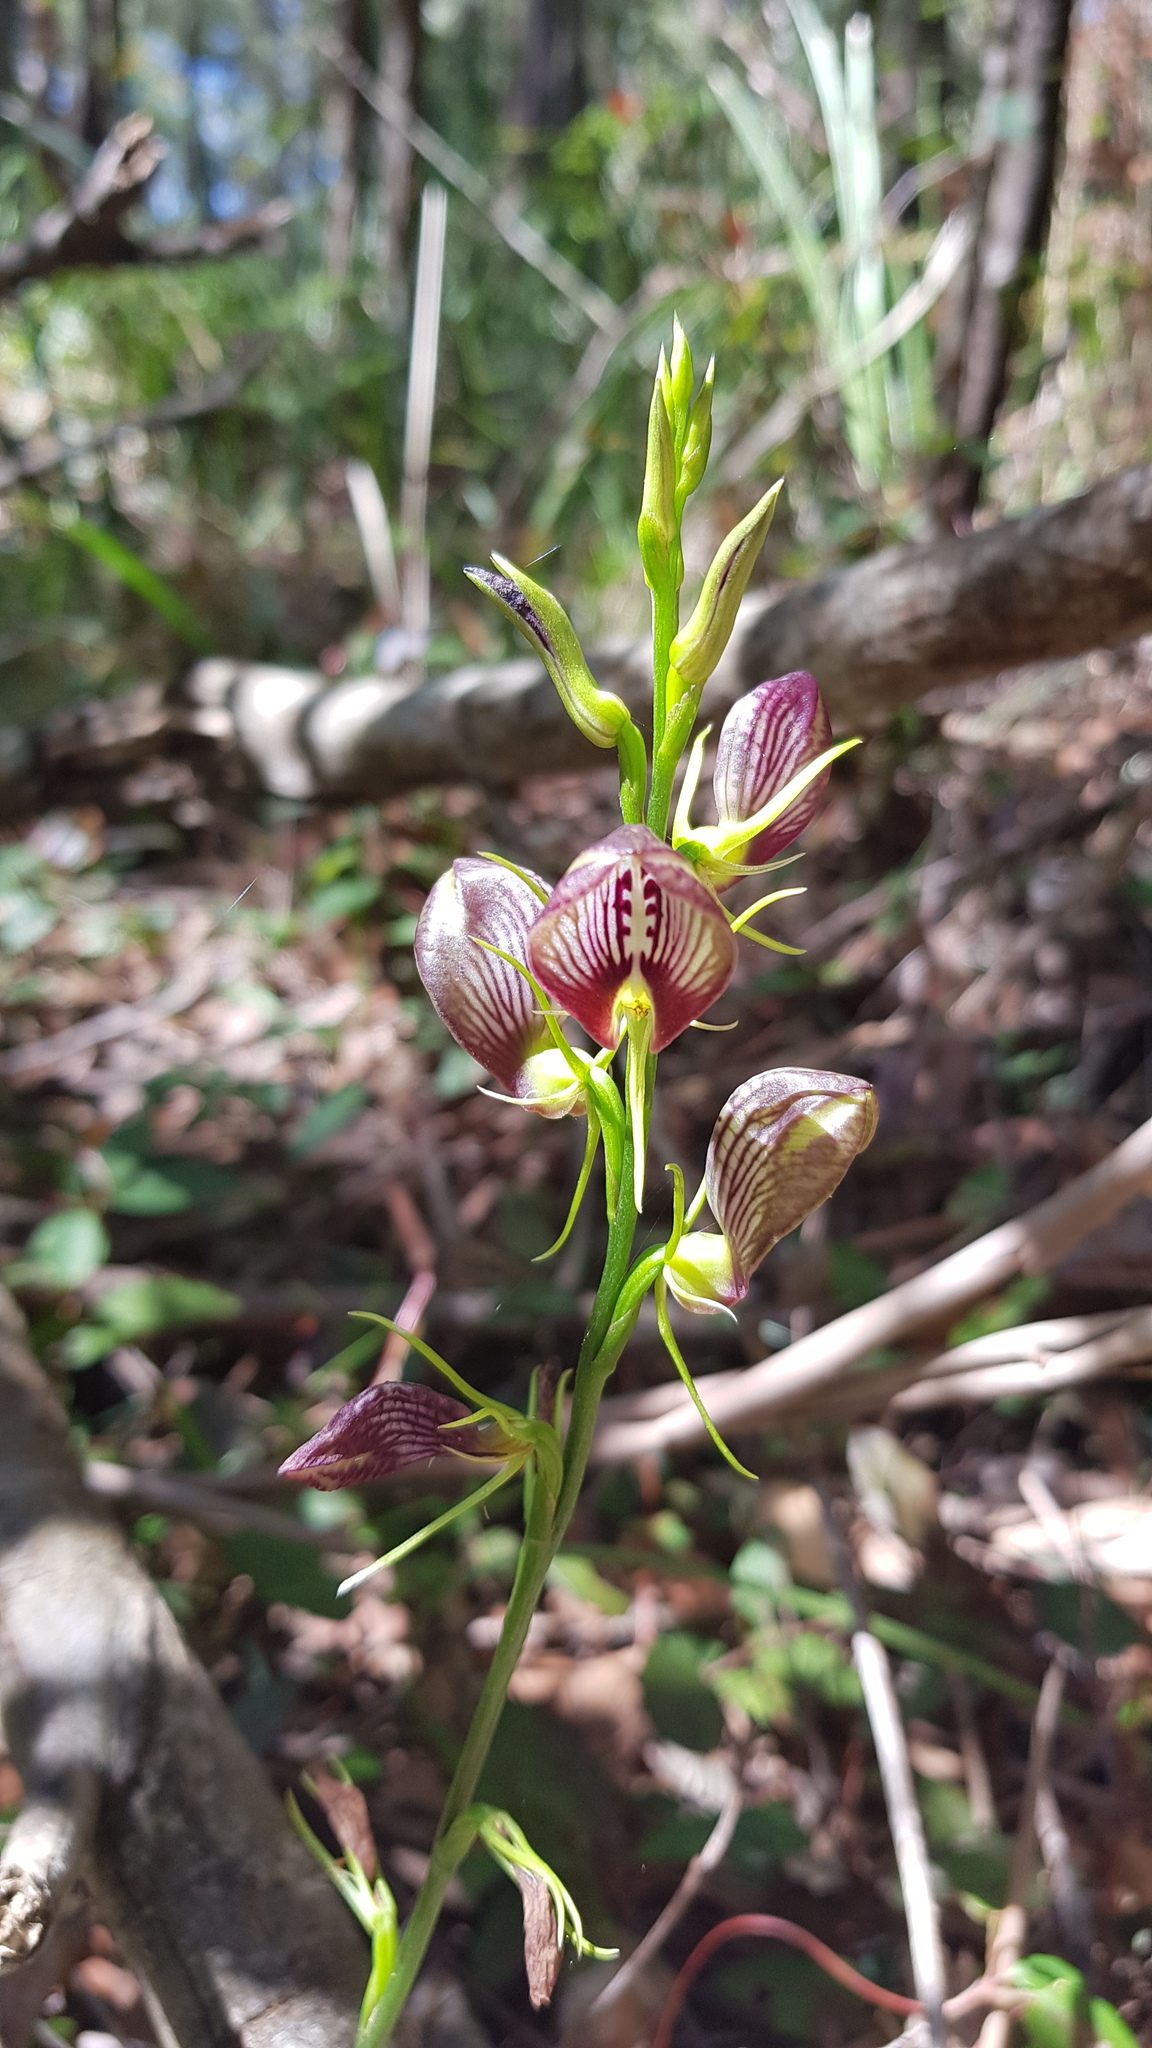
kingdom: Plantae
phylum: Tracheophyta
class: Liliopsida
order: Asparagales
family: Orchidaceae
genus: Cryptostylis
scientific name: Cryptostylis erecta
